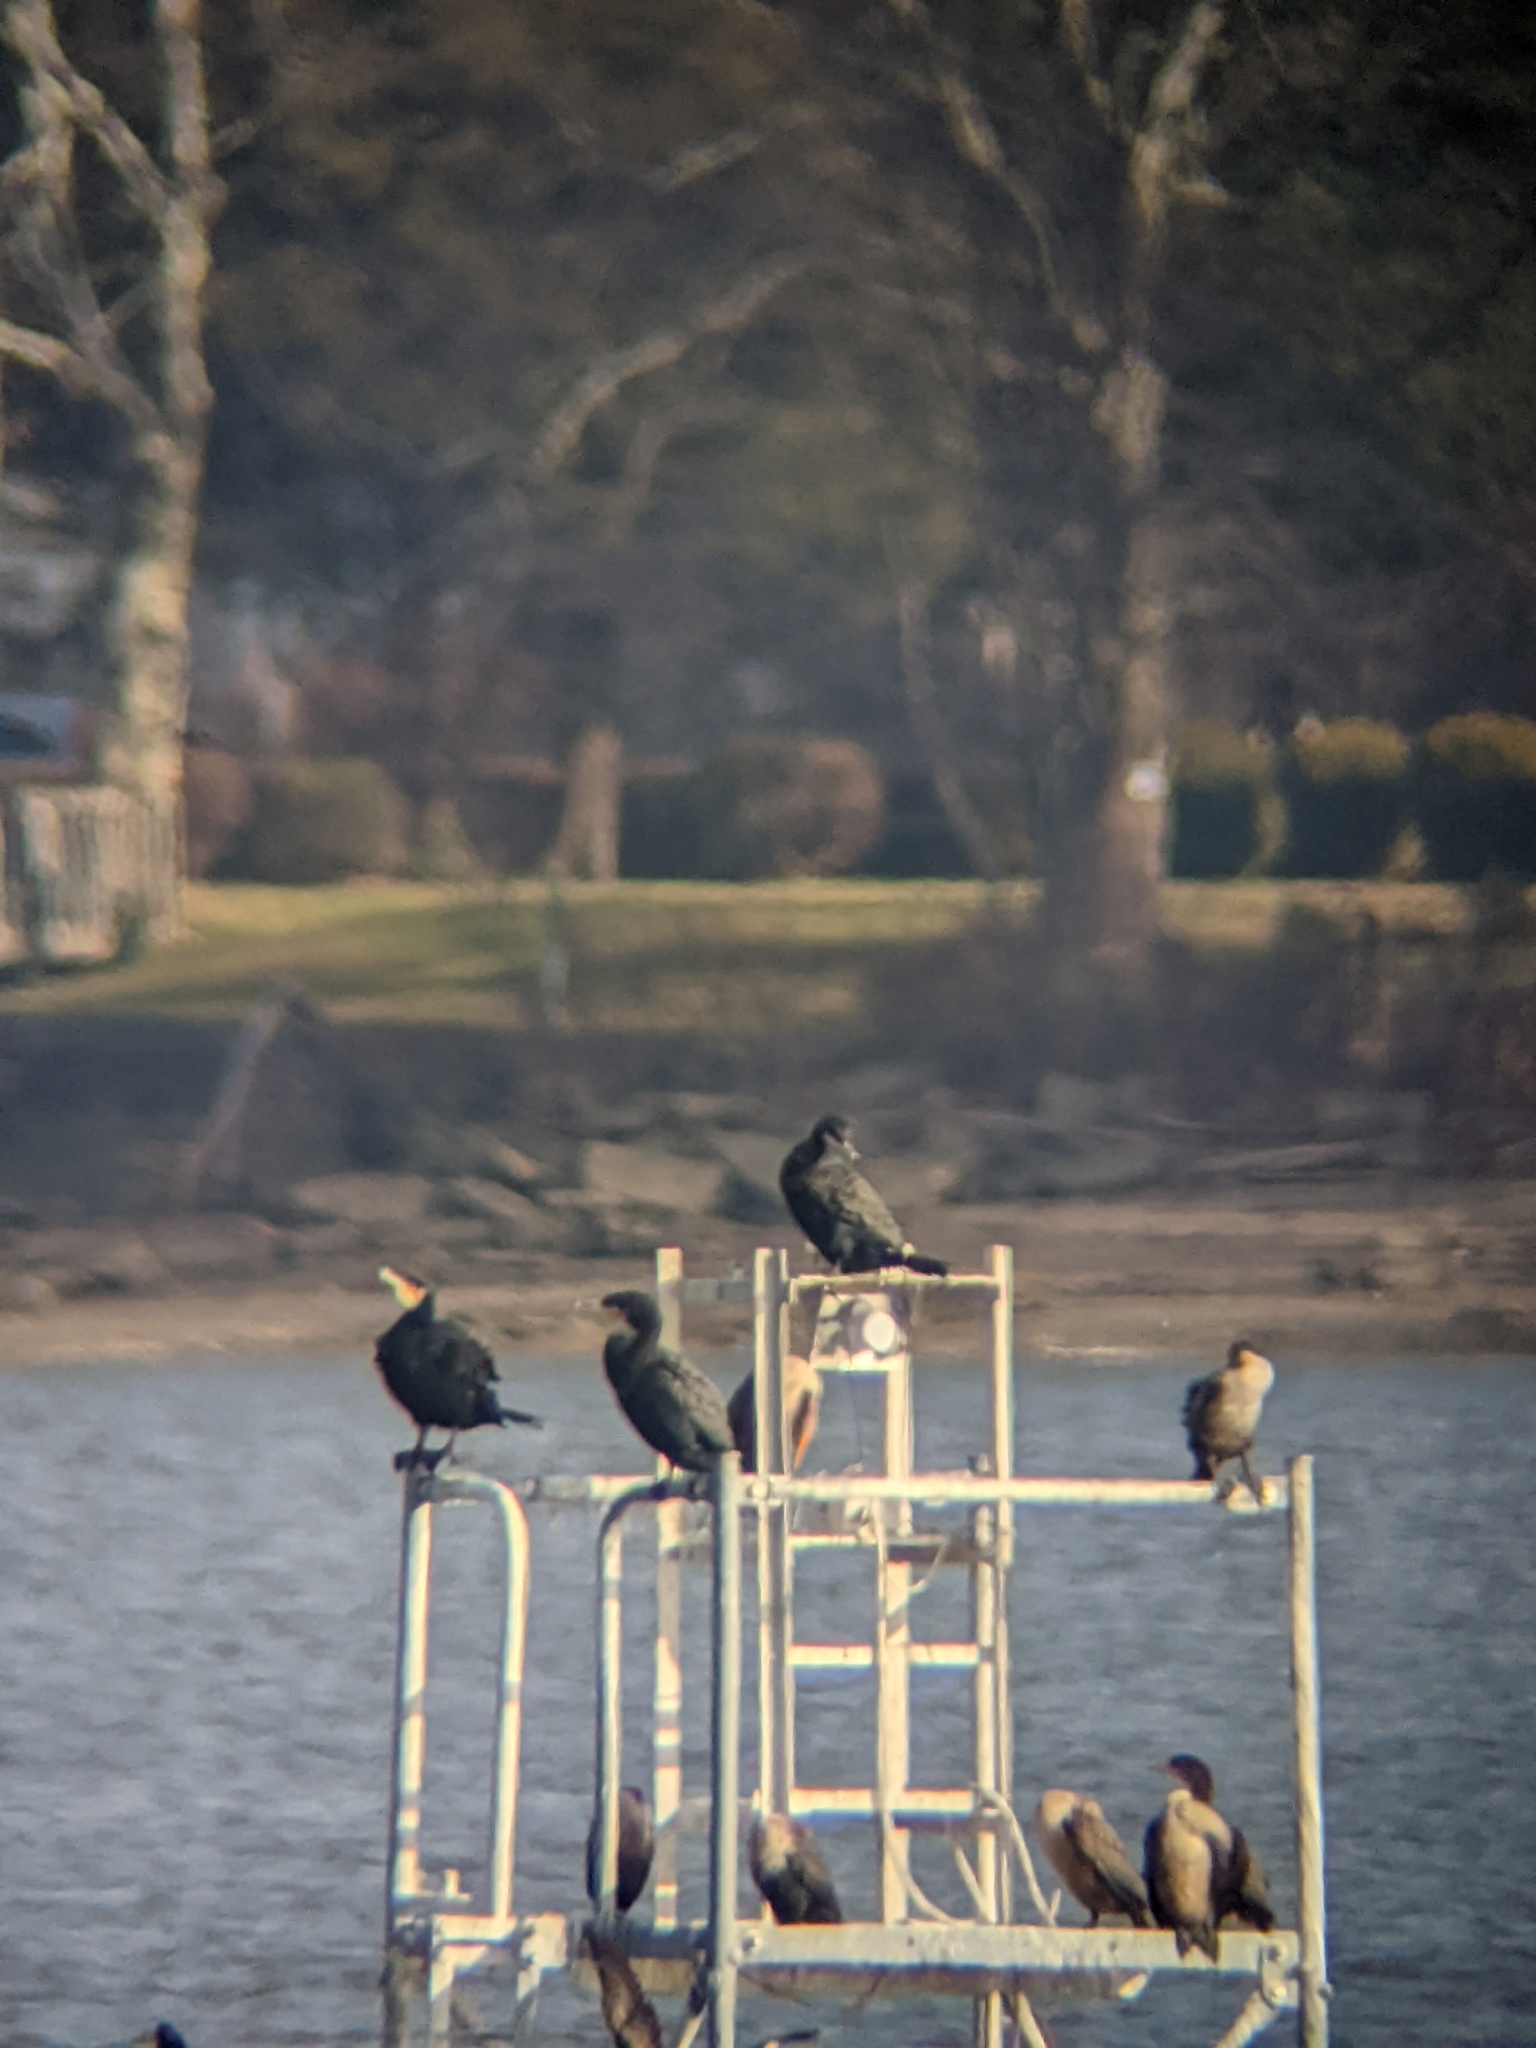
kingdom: Animalia
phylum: Chordata
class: Aves
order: Suliformes
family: Phalacrocoracidae
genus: Phalacrocorax
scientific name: Phalacrocorax carbo
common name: Great cormorant
